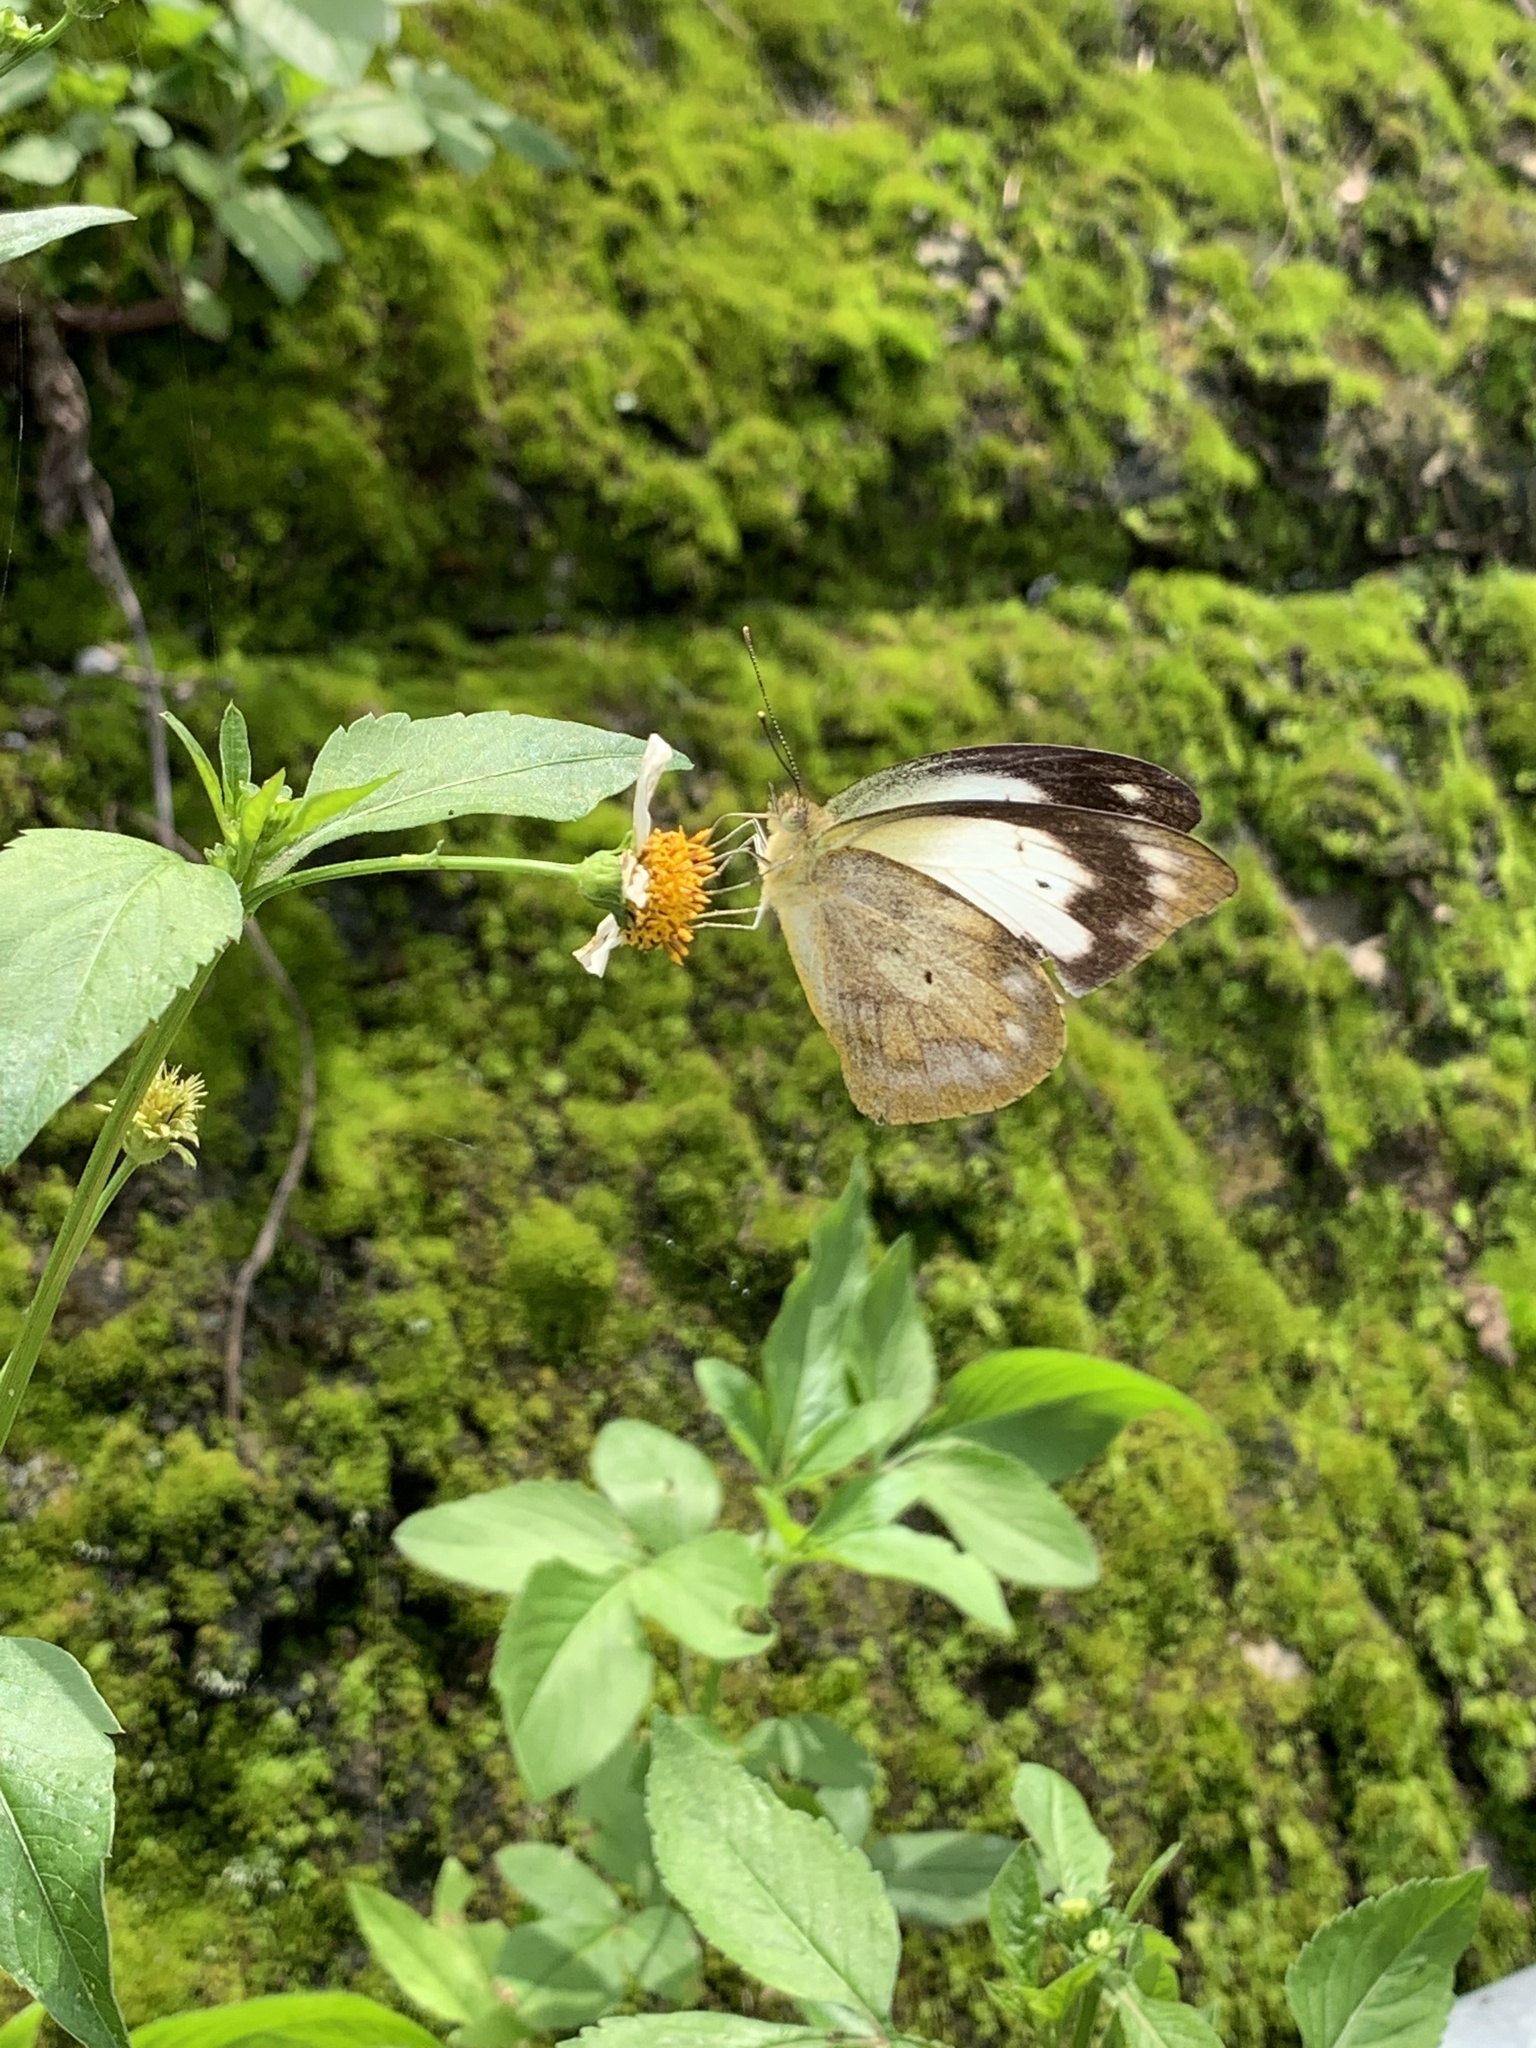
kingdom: Animalia
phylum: Arthropoda
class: Insecta
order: Lepidoptera
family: Pieridae
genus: Appias
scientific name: Appias indra
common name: Plain puffin
